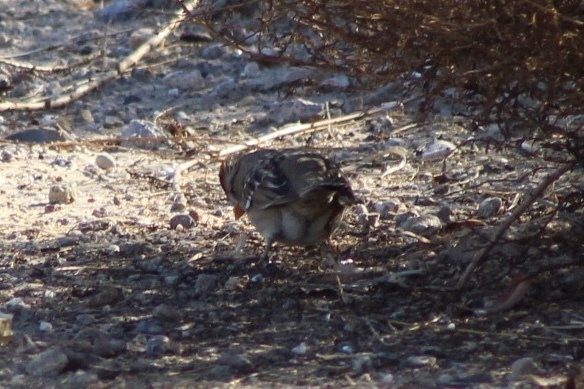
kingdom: Animalia
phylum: Chordata
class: Aves
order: Passeriformes
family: Passerellidae
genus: Zonotrichia
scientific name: Zonotrichia leucophrys
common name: White-crowned sparrow
